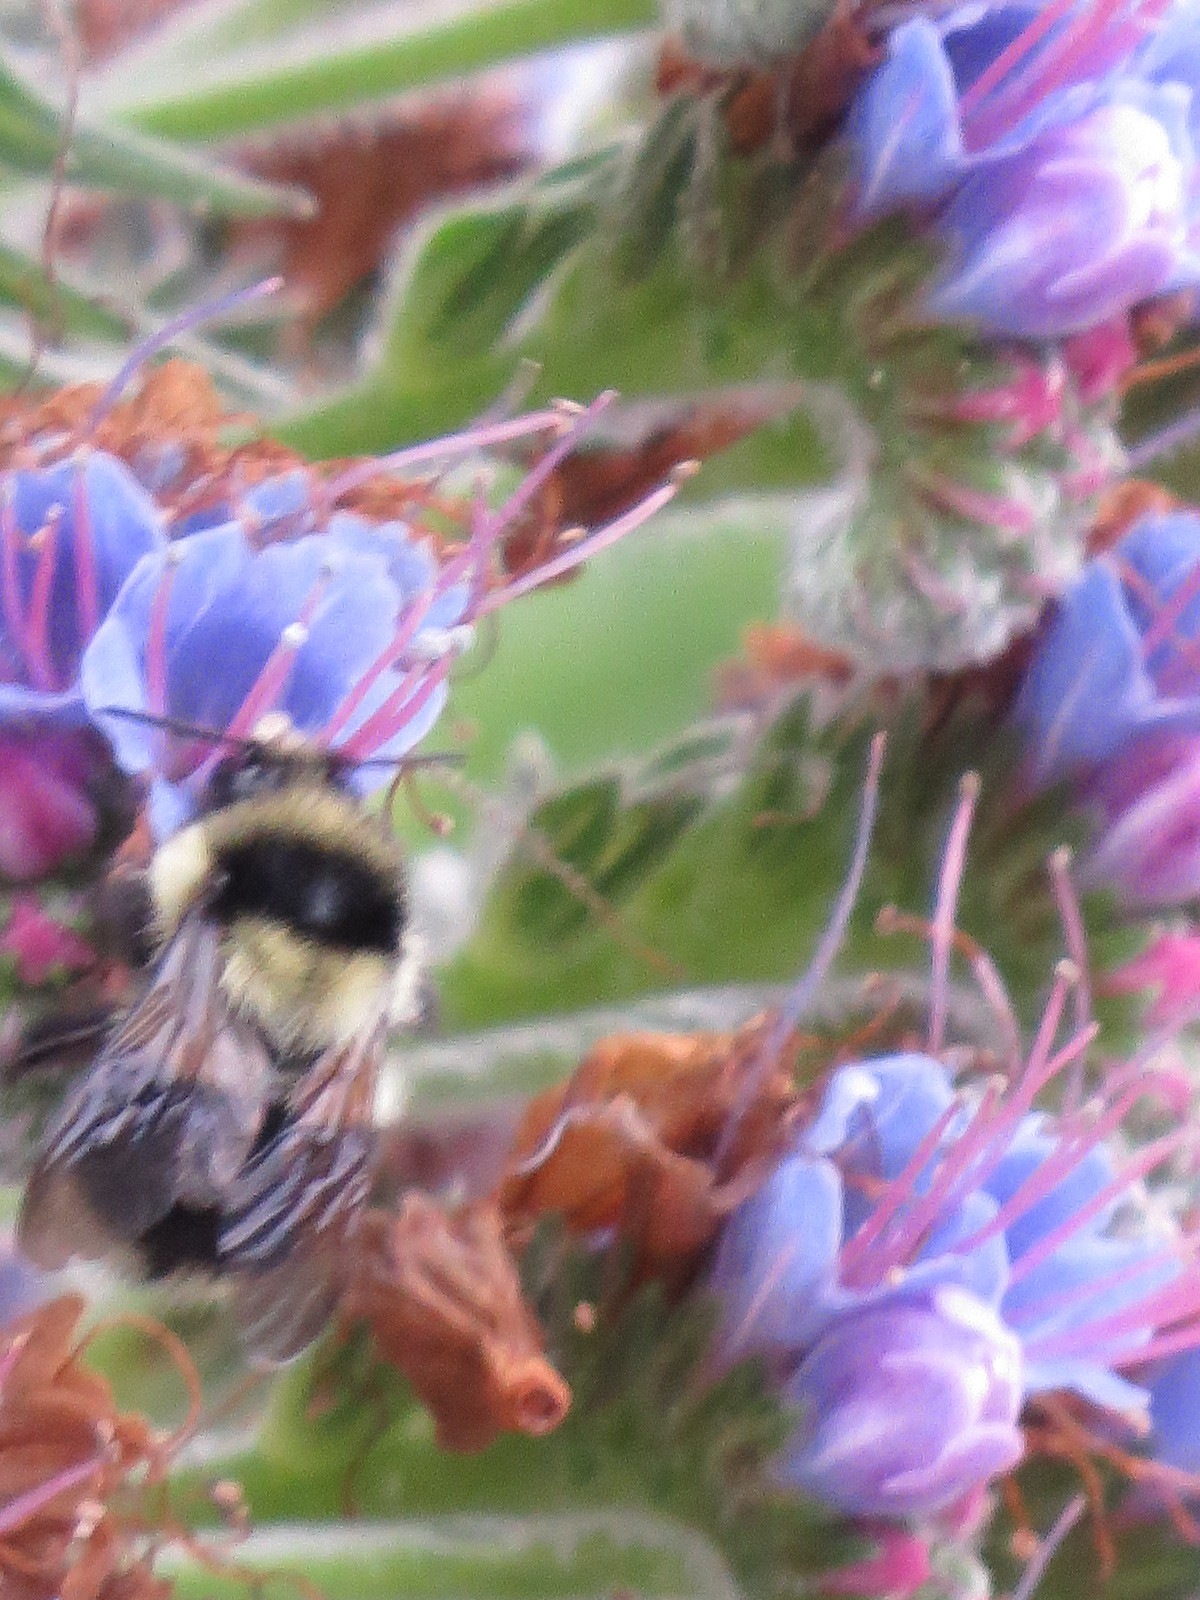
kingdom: Animalia
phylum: Arthropoda
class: Insecta
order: Hymenoptera
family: Apidae
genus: Bombus
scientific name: Bombus melanopygus
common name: Black tail bumble bee
